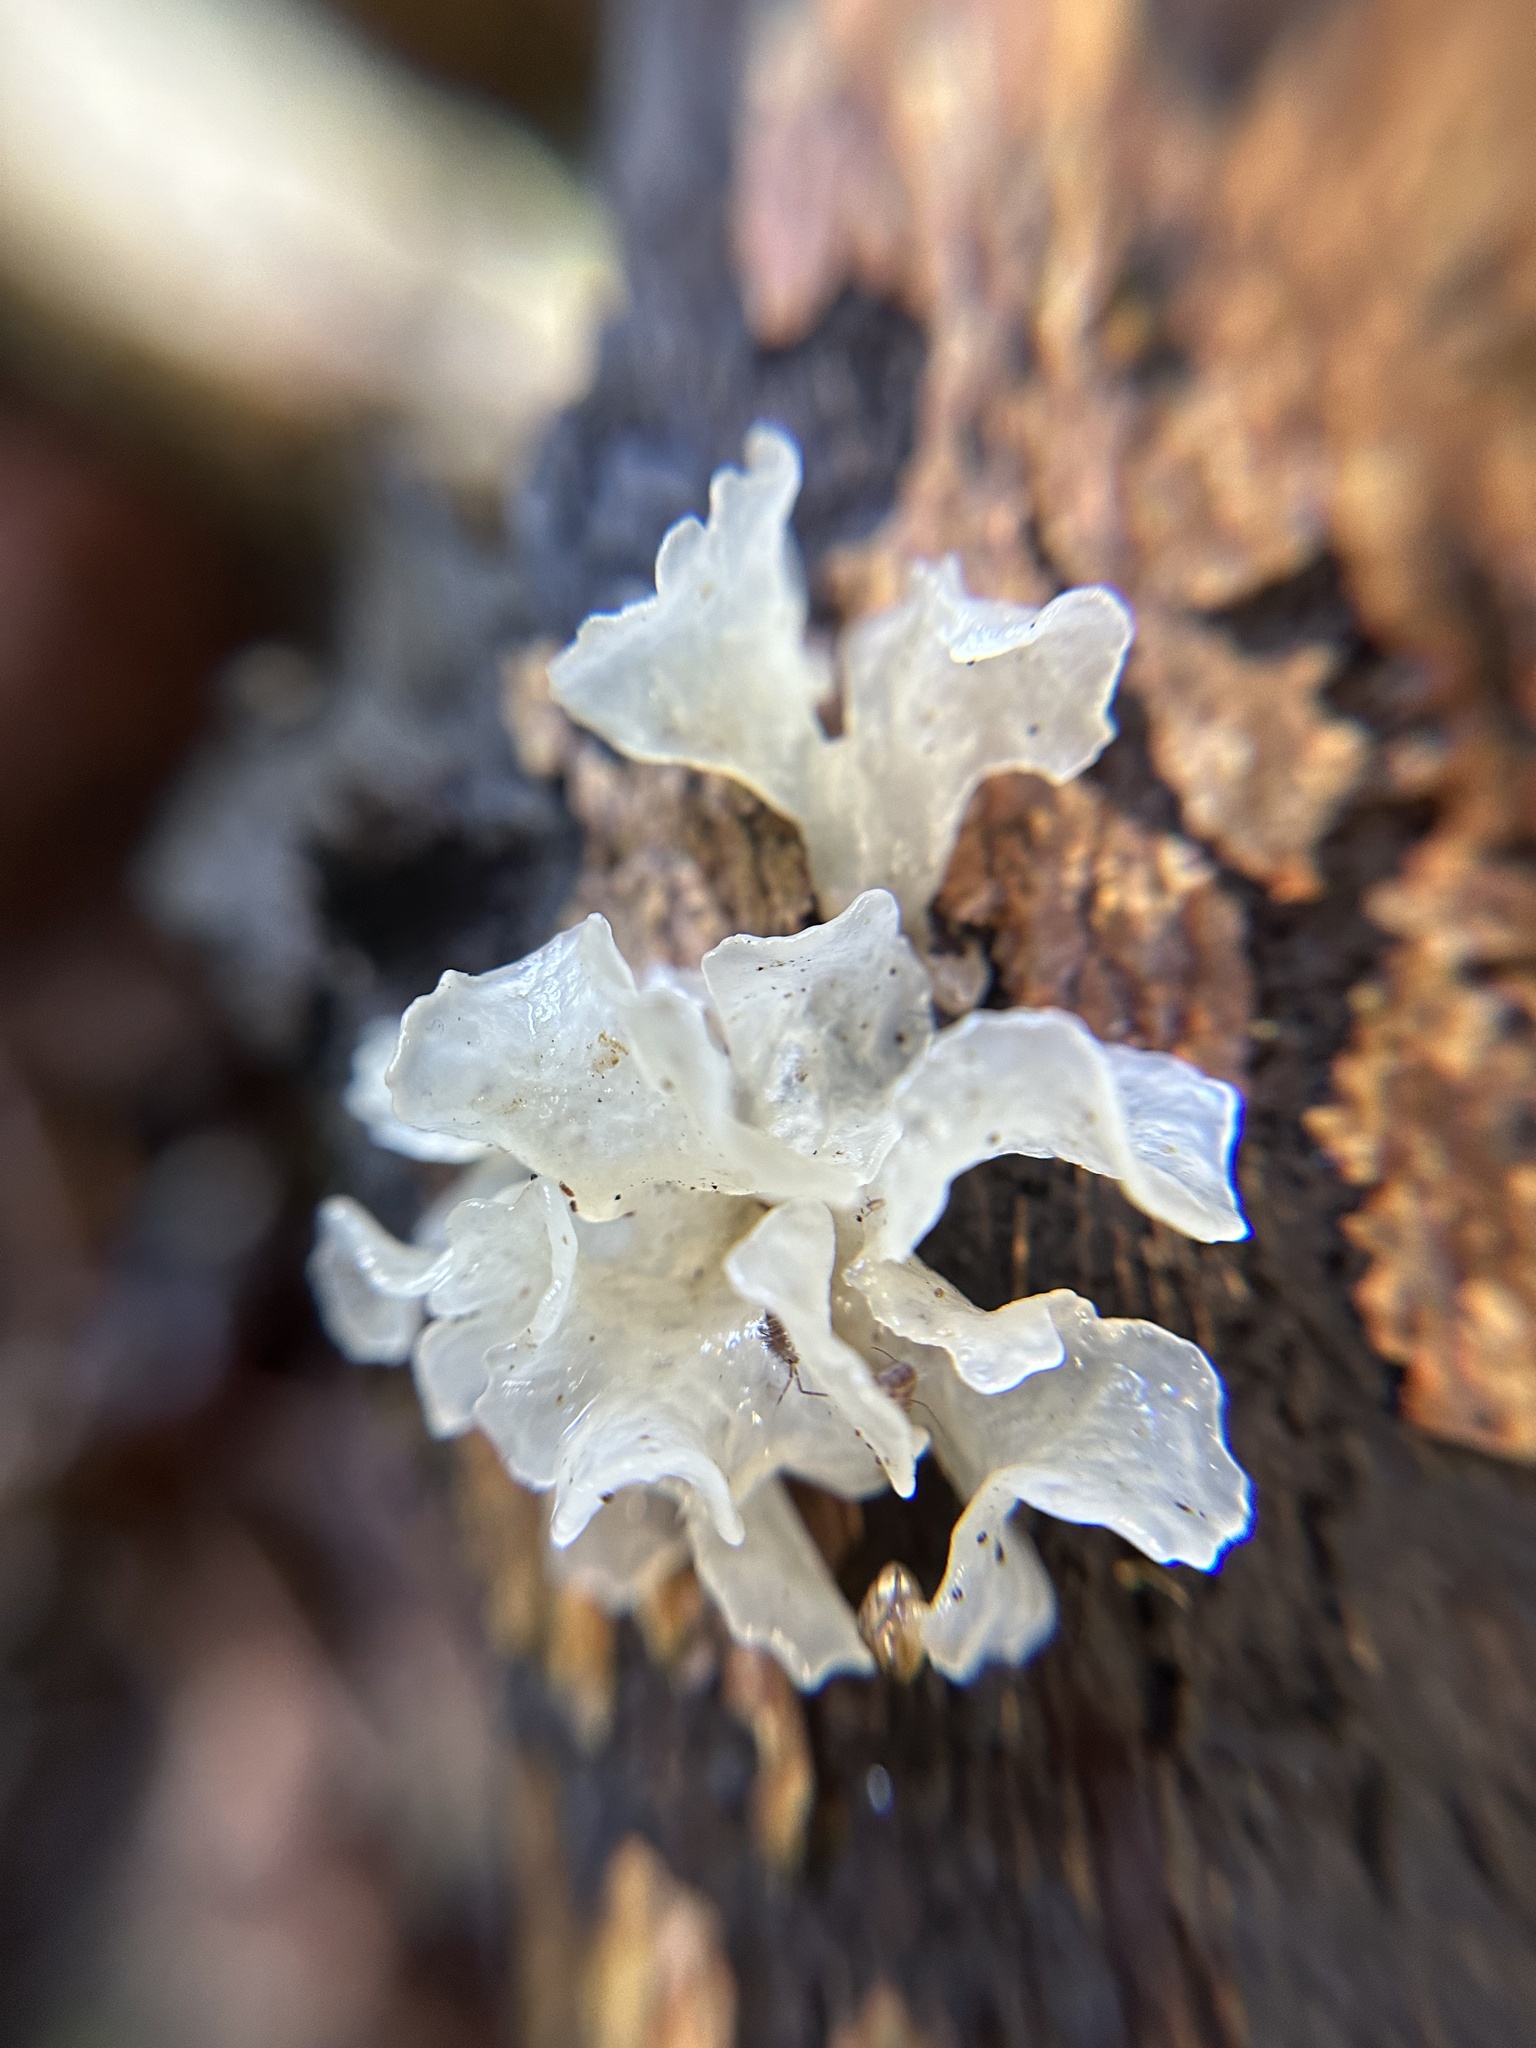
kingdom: Fungi
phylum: Basidiomycota
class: Tremellomycetes
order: Tremellales
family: Tremellaceae
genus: Tremella
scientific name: Tremella fuciformis
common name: Snow fungus
